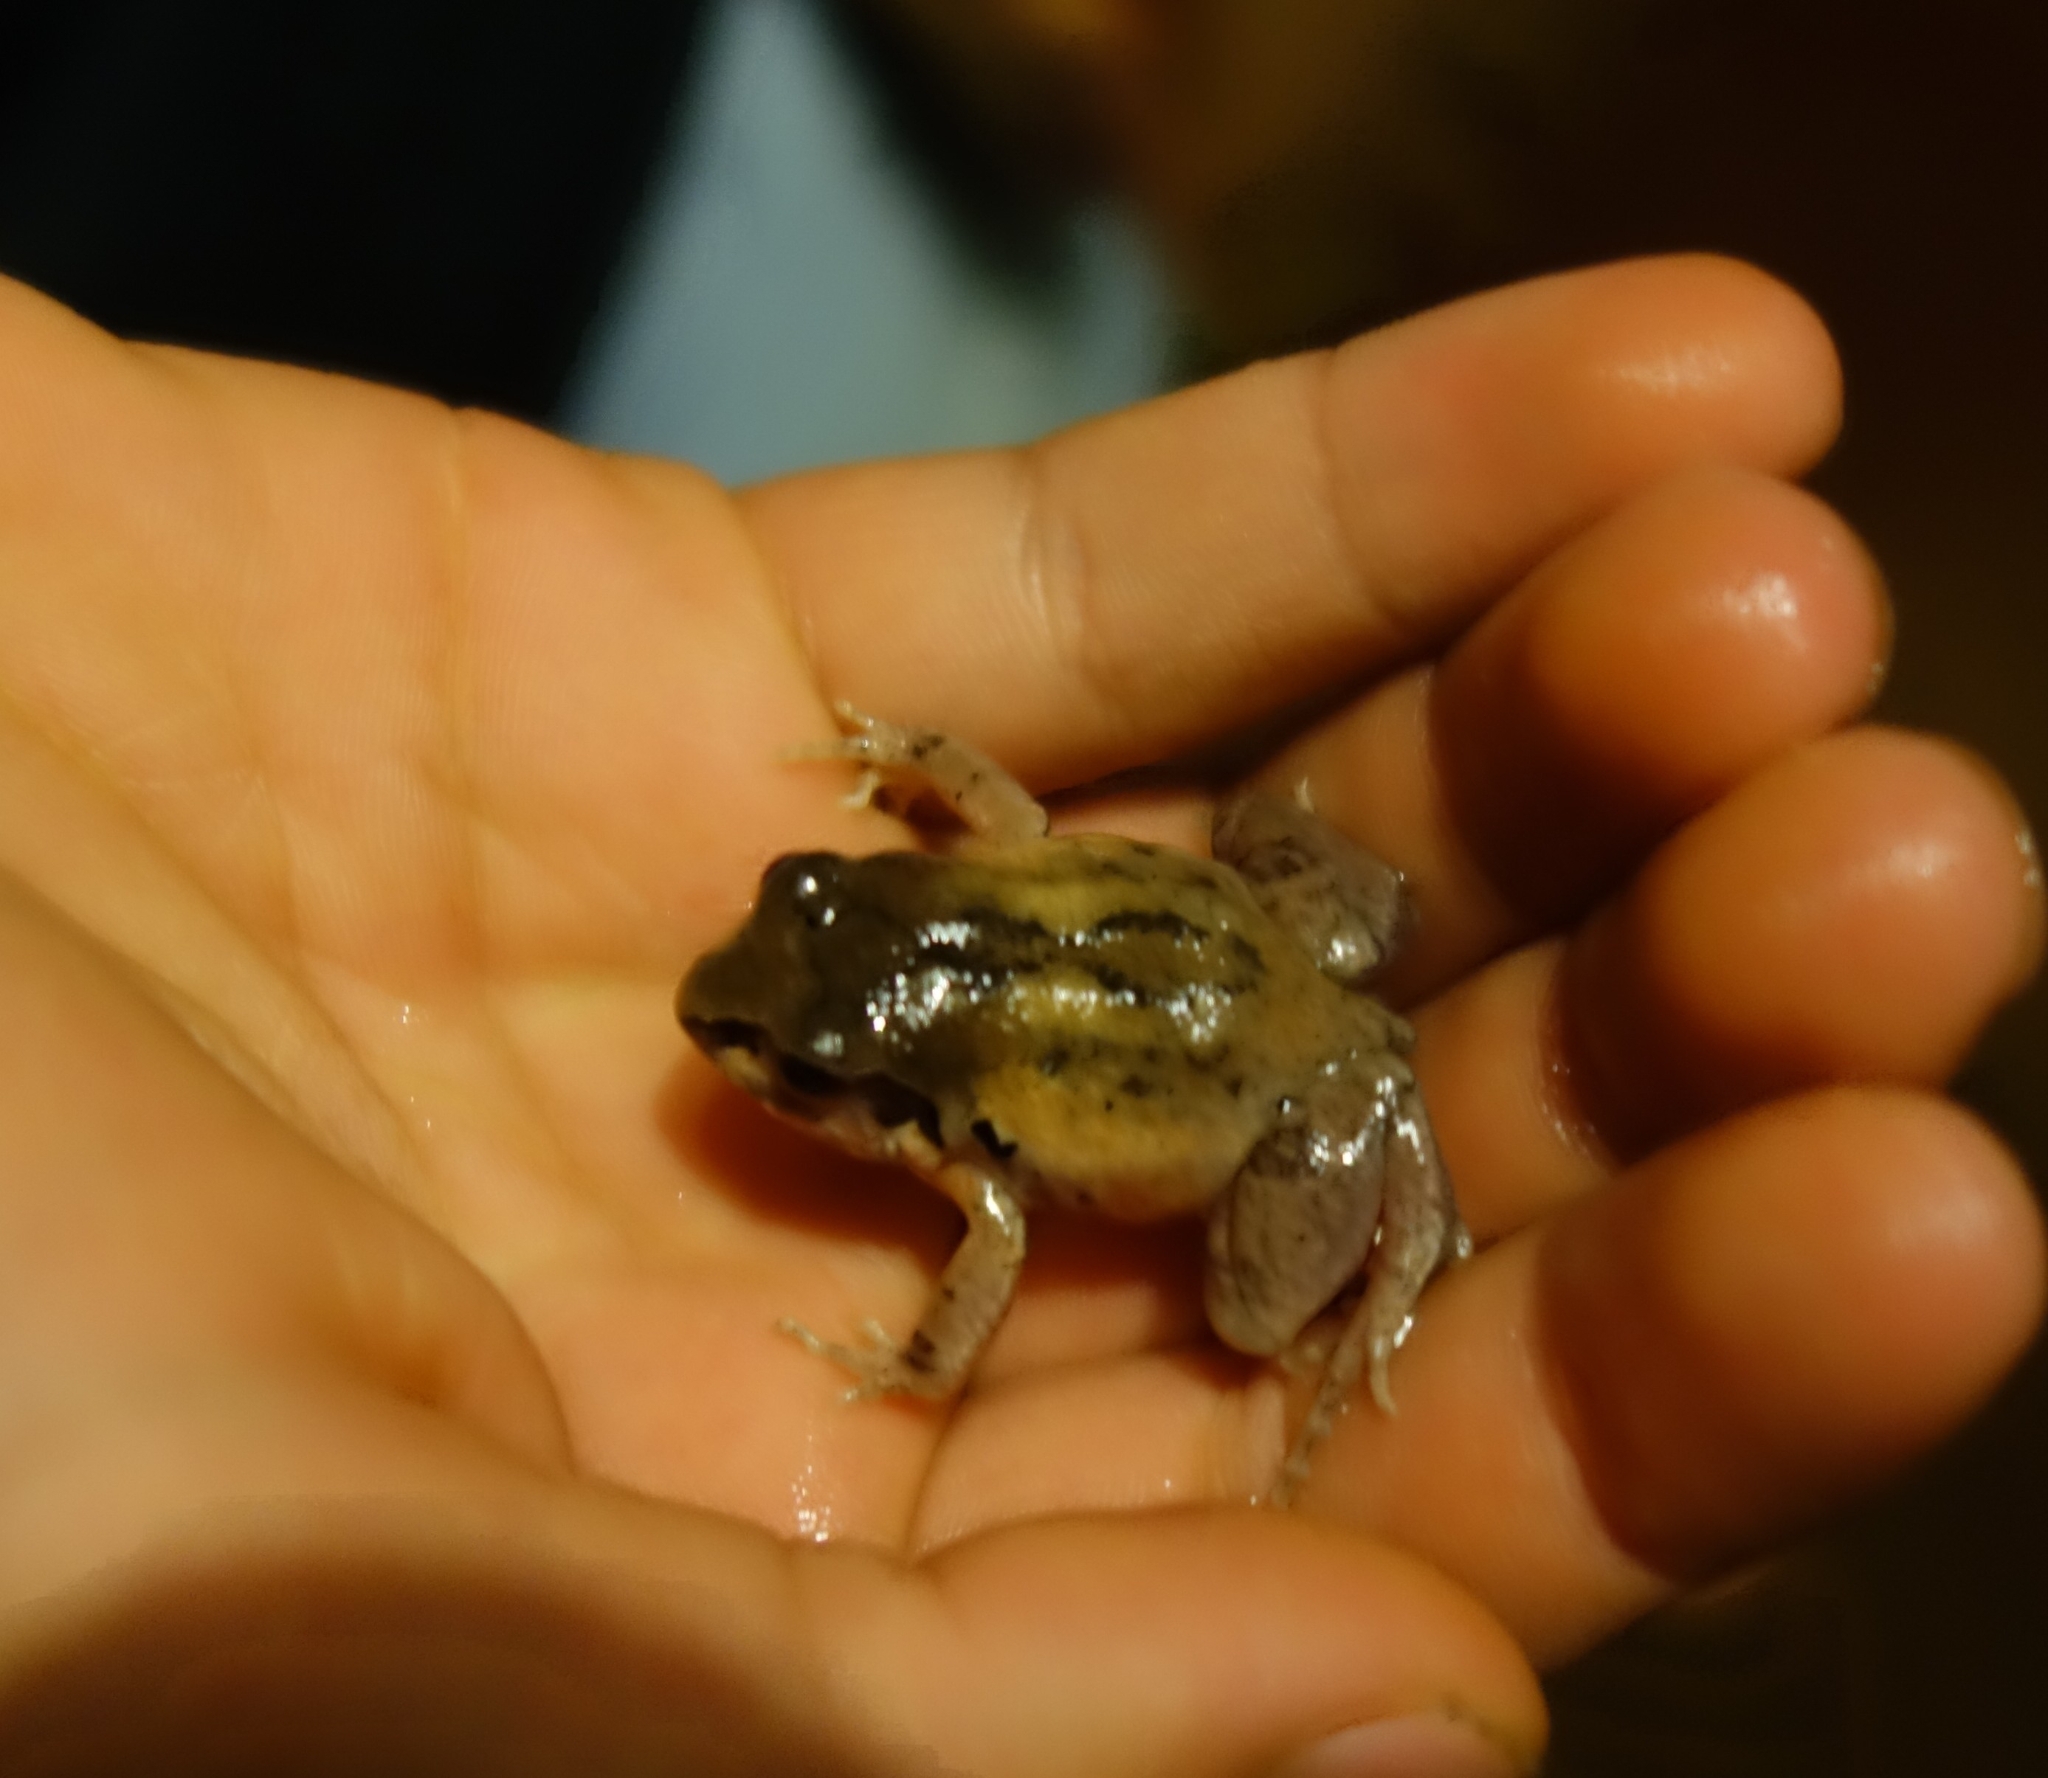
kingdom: Animalia
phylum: Chordata
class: Amphibia
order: Anura
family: Arthroleptidae
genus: Arthroleptis
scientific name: Arthroleptis stenodactylus
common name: Dune squeaker
